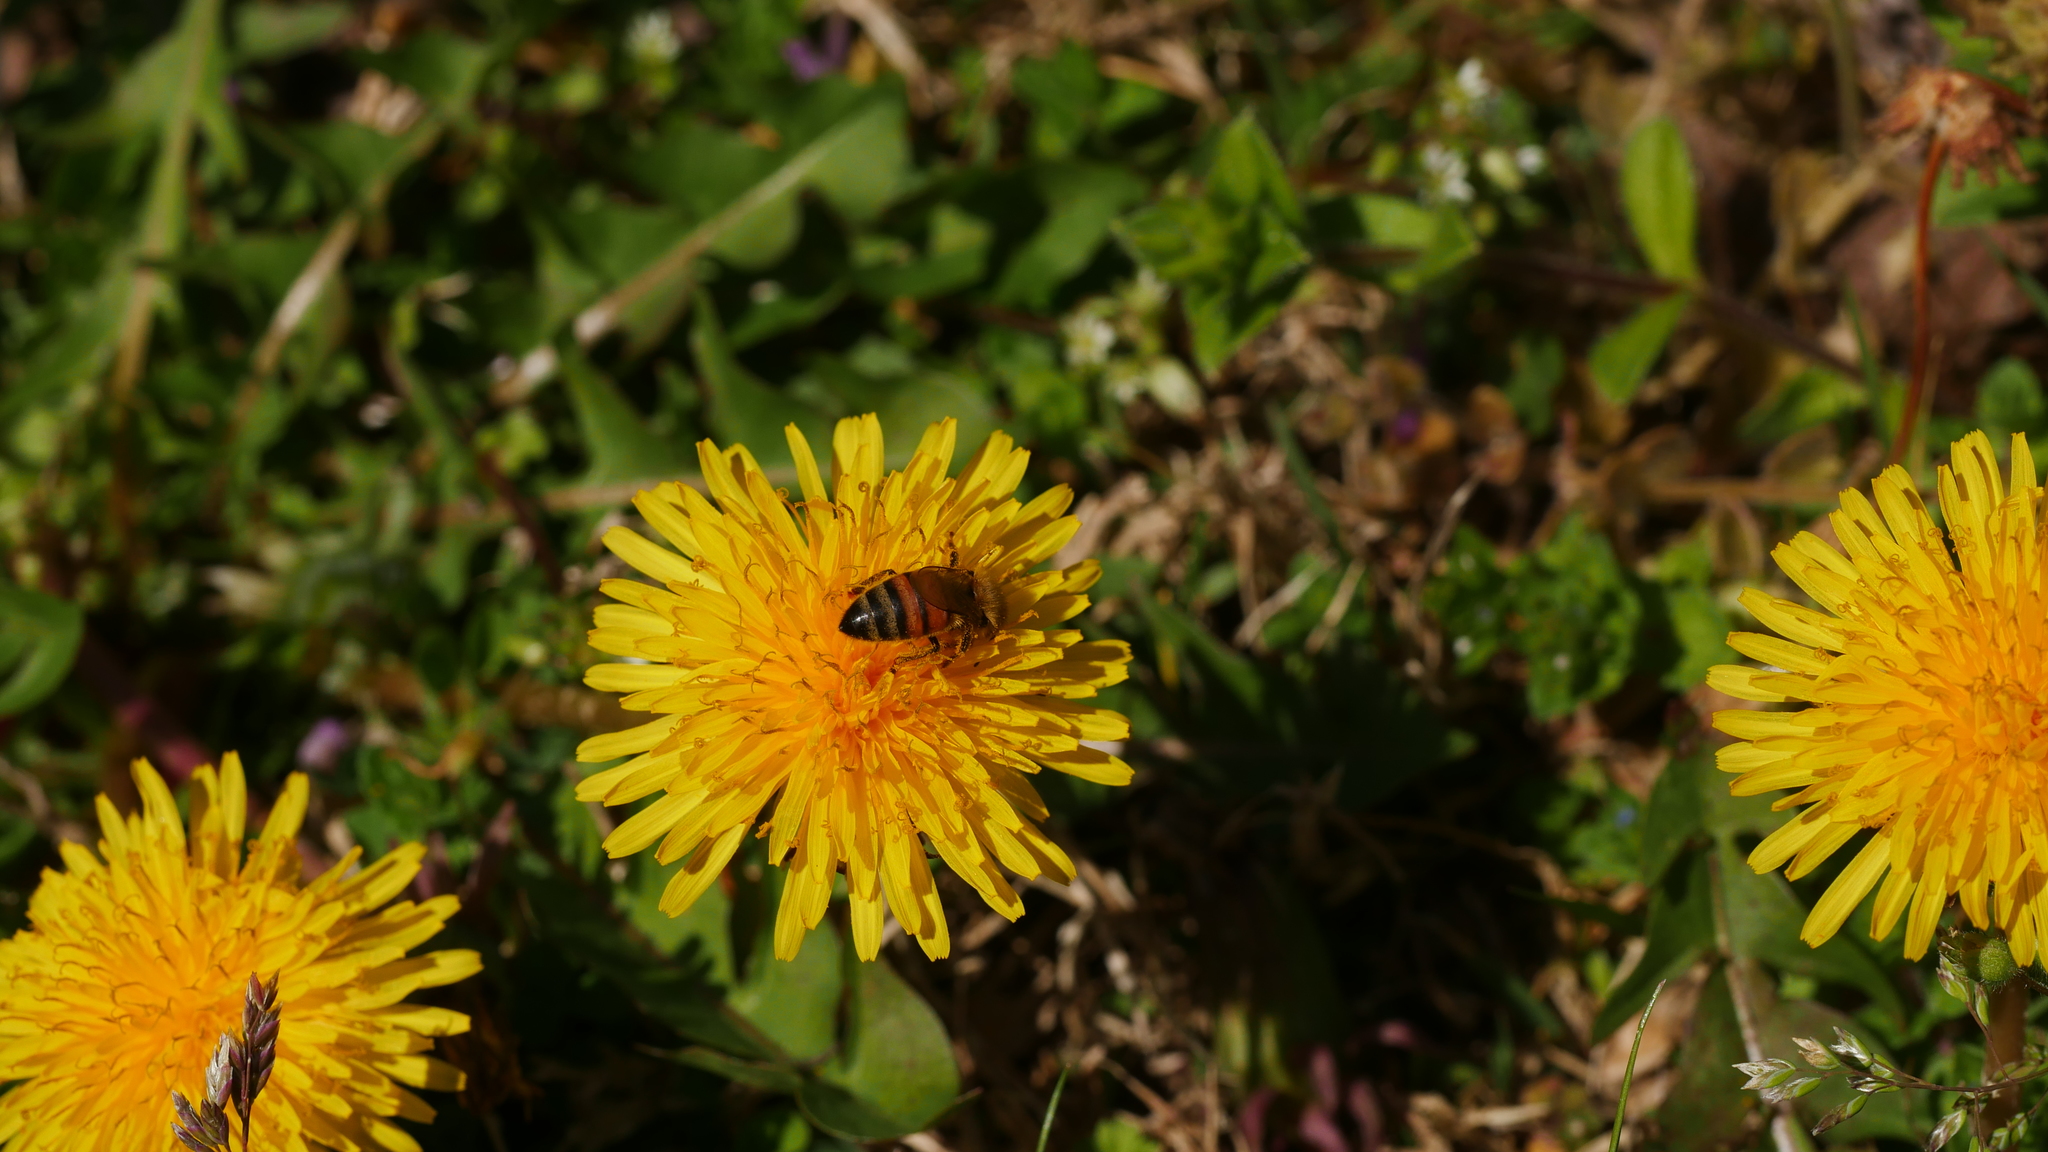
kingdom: Animalia
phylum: Arthropoda
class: Insecta
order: Hymenoptera
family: Apidae
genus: Apis
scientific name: Apis mellifera
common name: Honey bee
